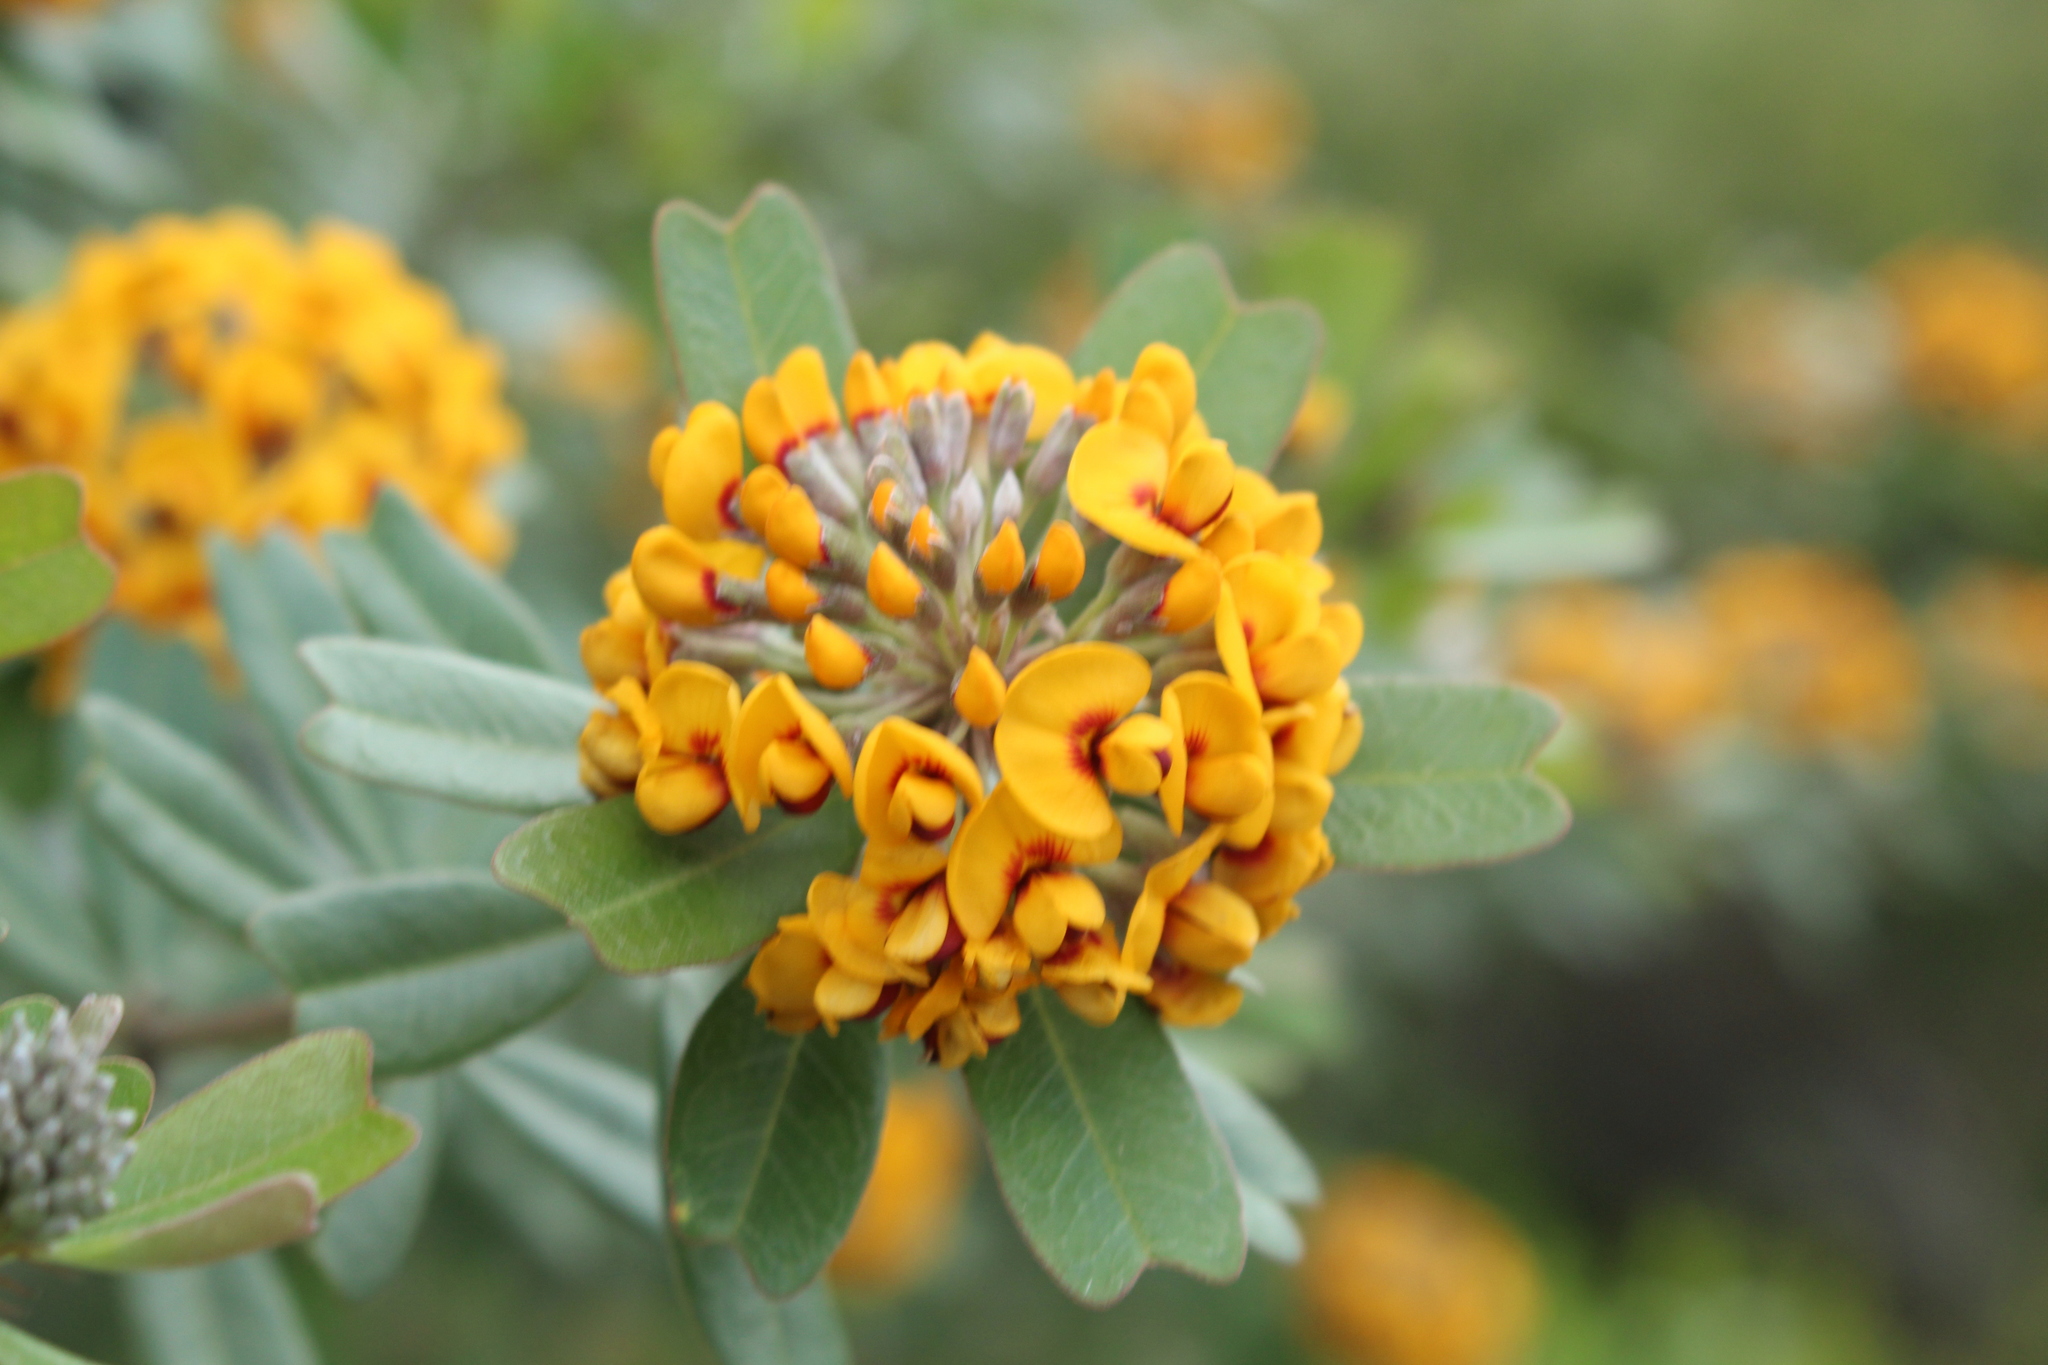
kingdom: Plantae
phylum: Tracheophyta
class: Magnoliopsida
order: Fabales
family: Fabaceae
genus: Gastrolobium
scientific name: Gastrolobium bilobum
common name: Heart-leaf poisonbush
